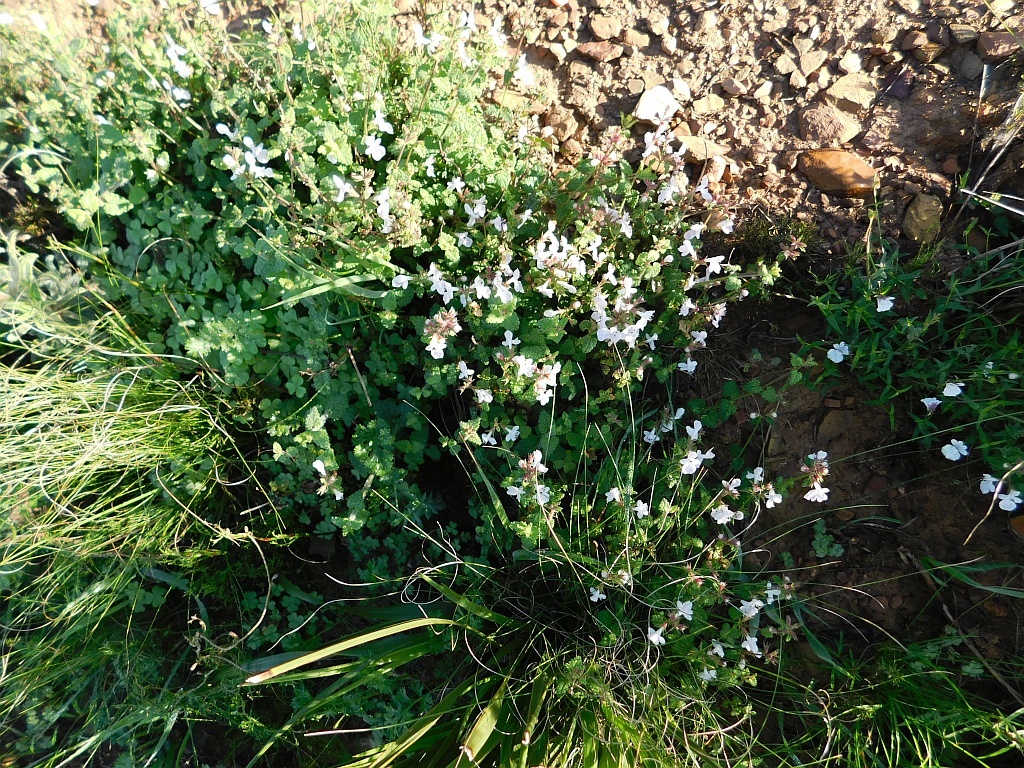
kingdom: Plantae
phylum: Tracheophyta
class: Magnoliopsida
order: Lamiales
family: Lamiaceae
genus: Stachys
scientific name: Stachys aethiopica
